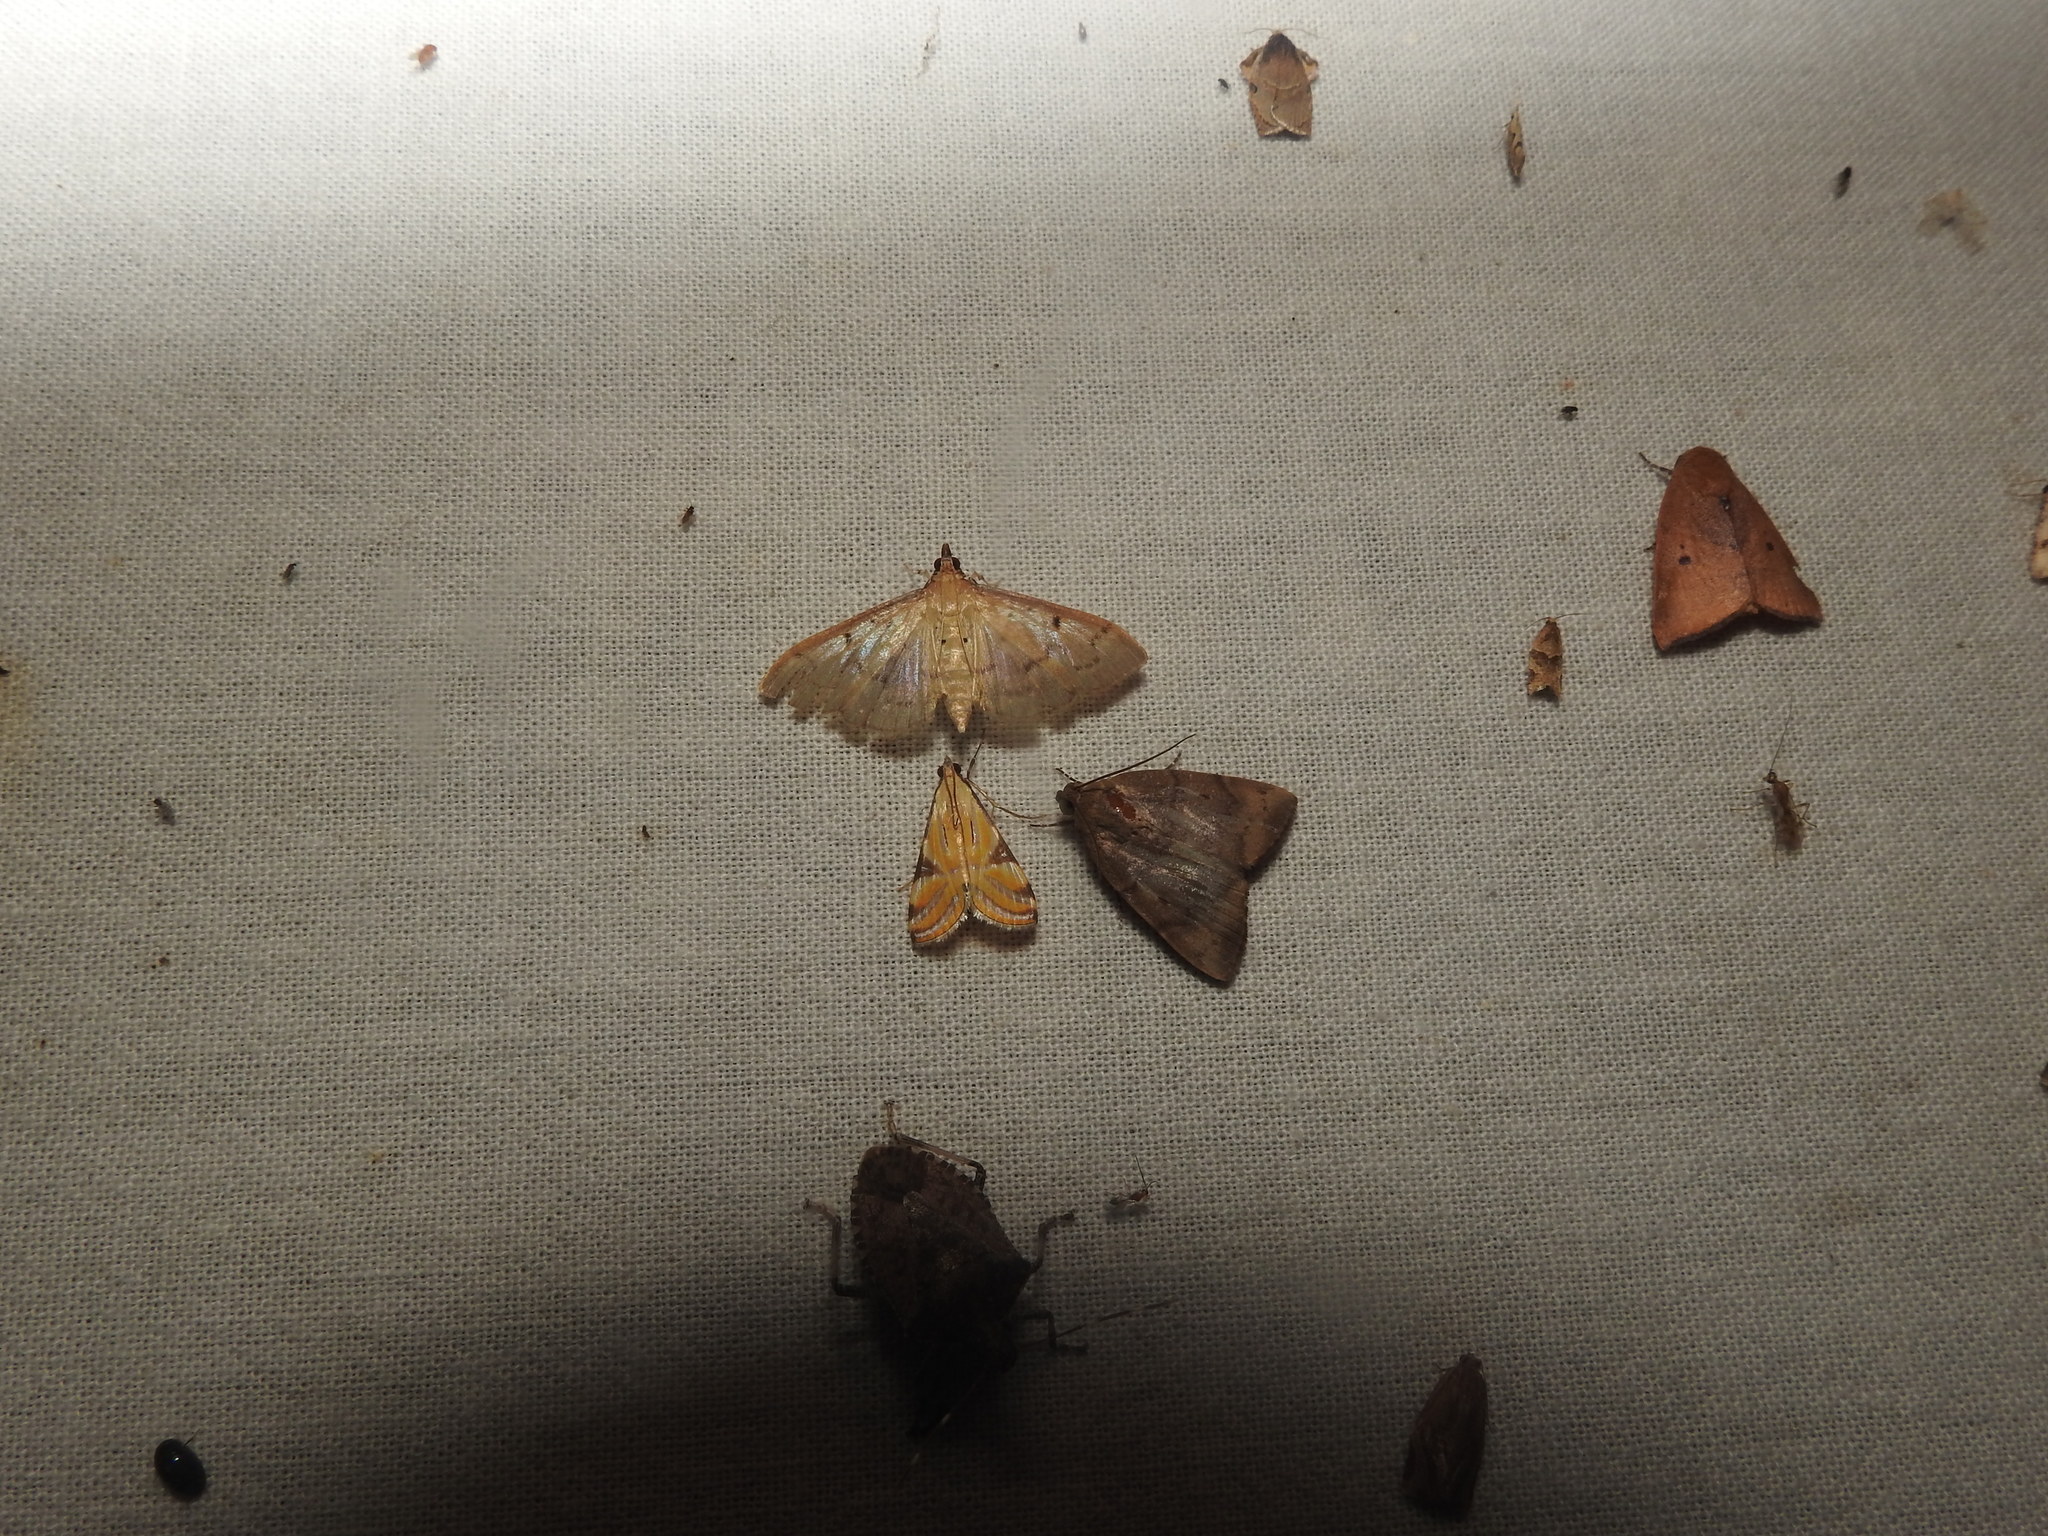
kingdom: Animalia
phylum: Arthropoda
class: Insecta
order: Lepidoptera
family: Crambidae
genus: Talanga
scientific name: Talanga sexpunctalis
